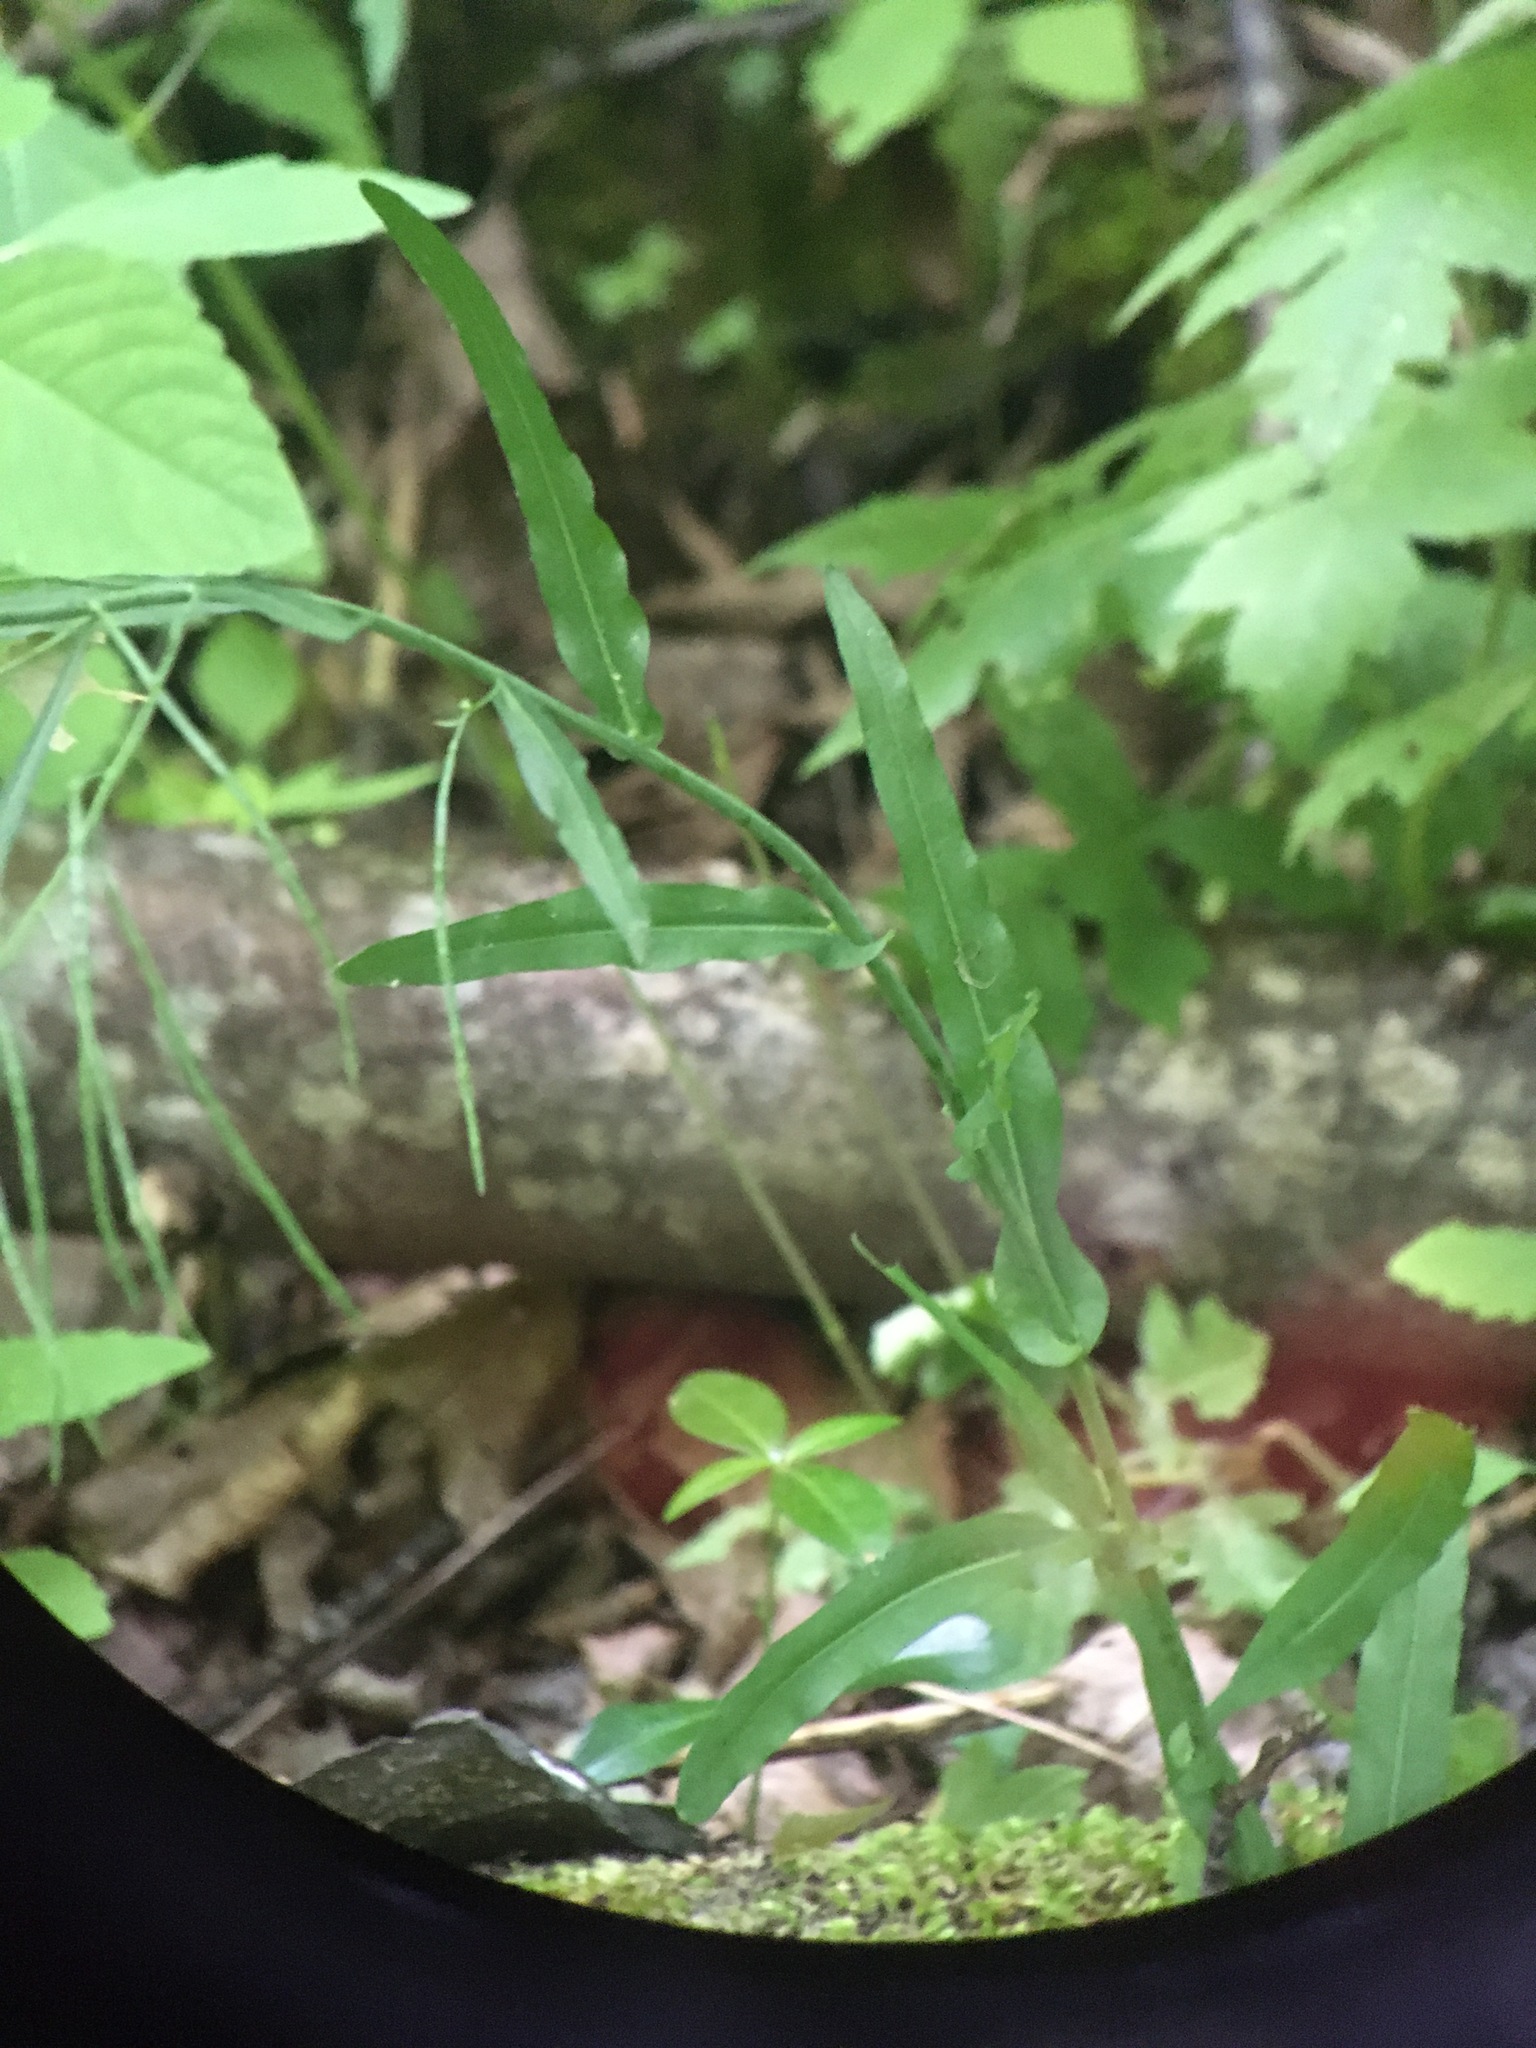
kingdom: Plantae
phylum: Tracheophyta
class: Magnoliopsida
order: Brassicales
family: Brassicaceae
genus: Borodinia
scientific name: Borodinia laevigata
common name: Smooth rockcress
